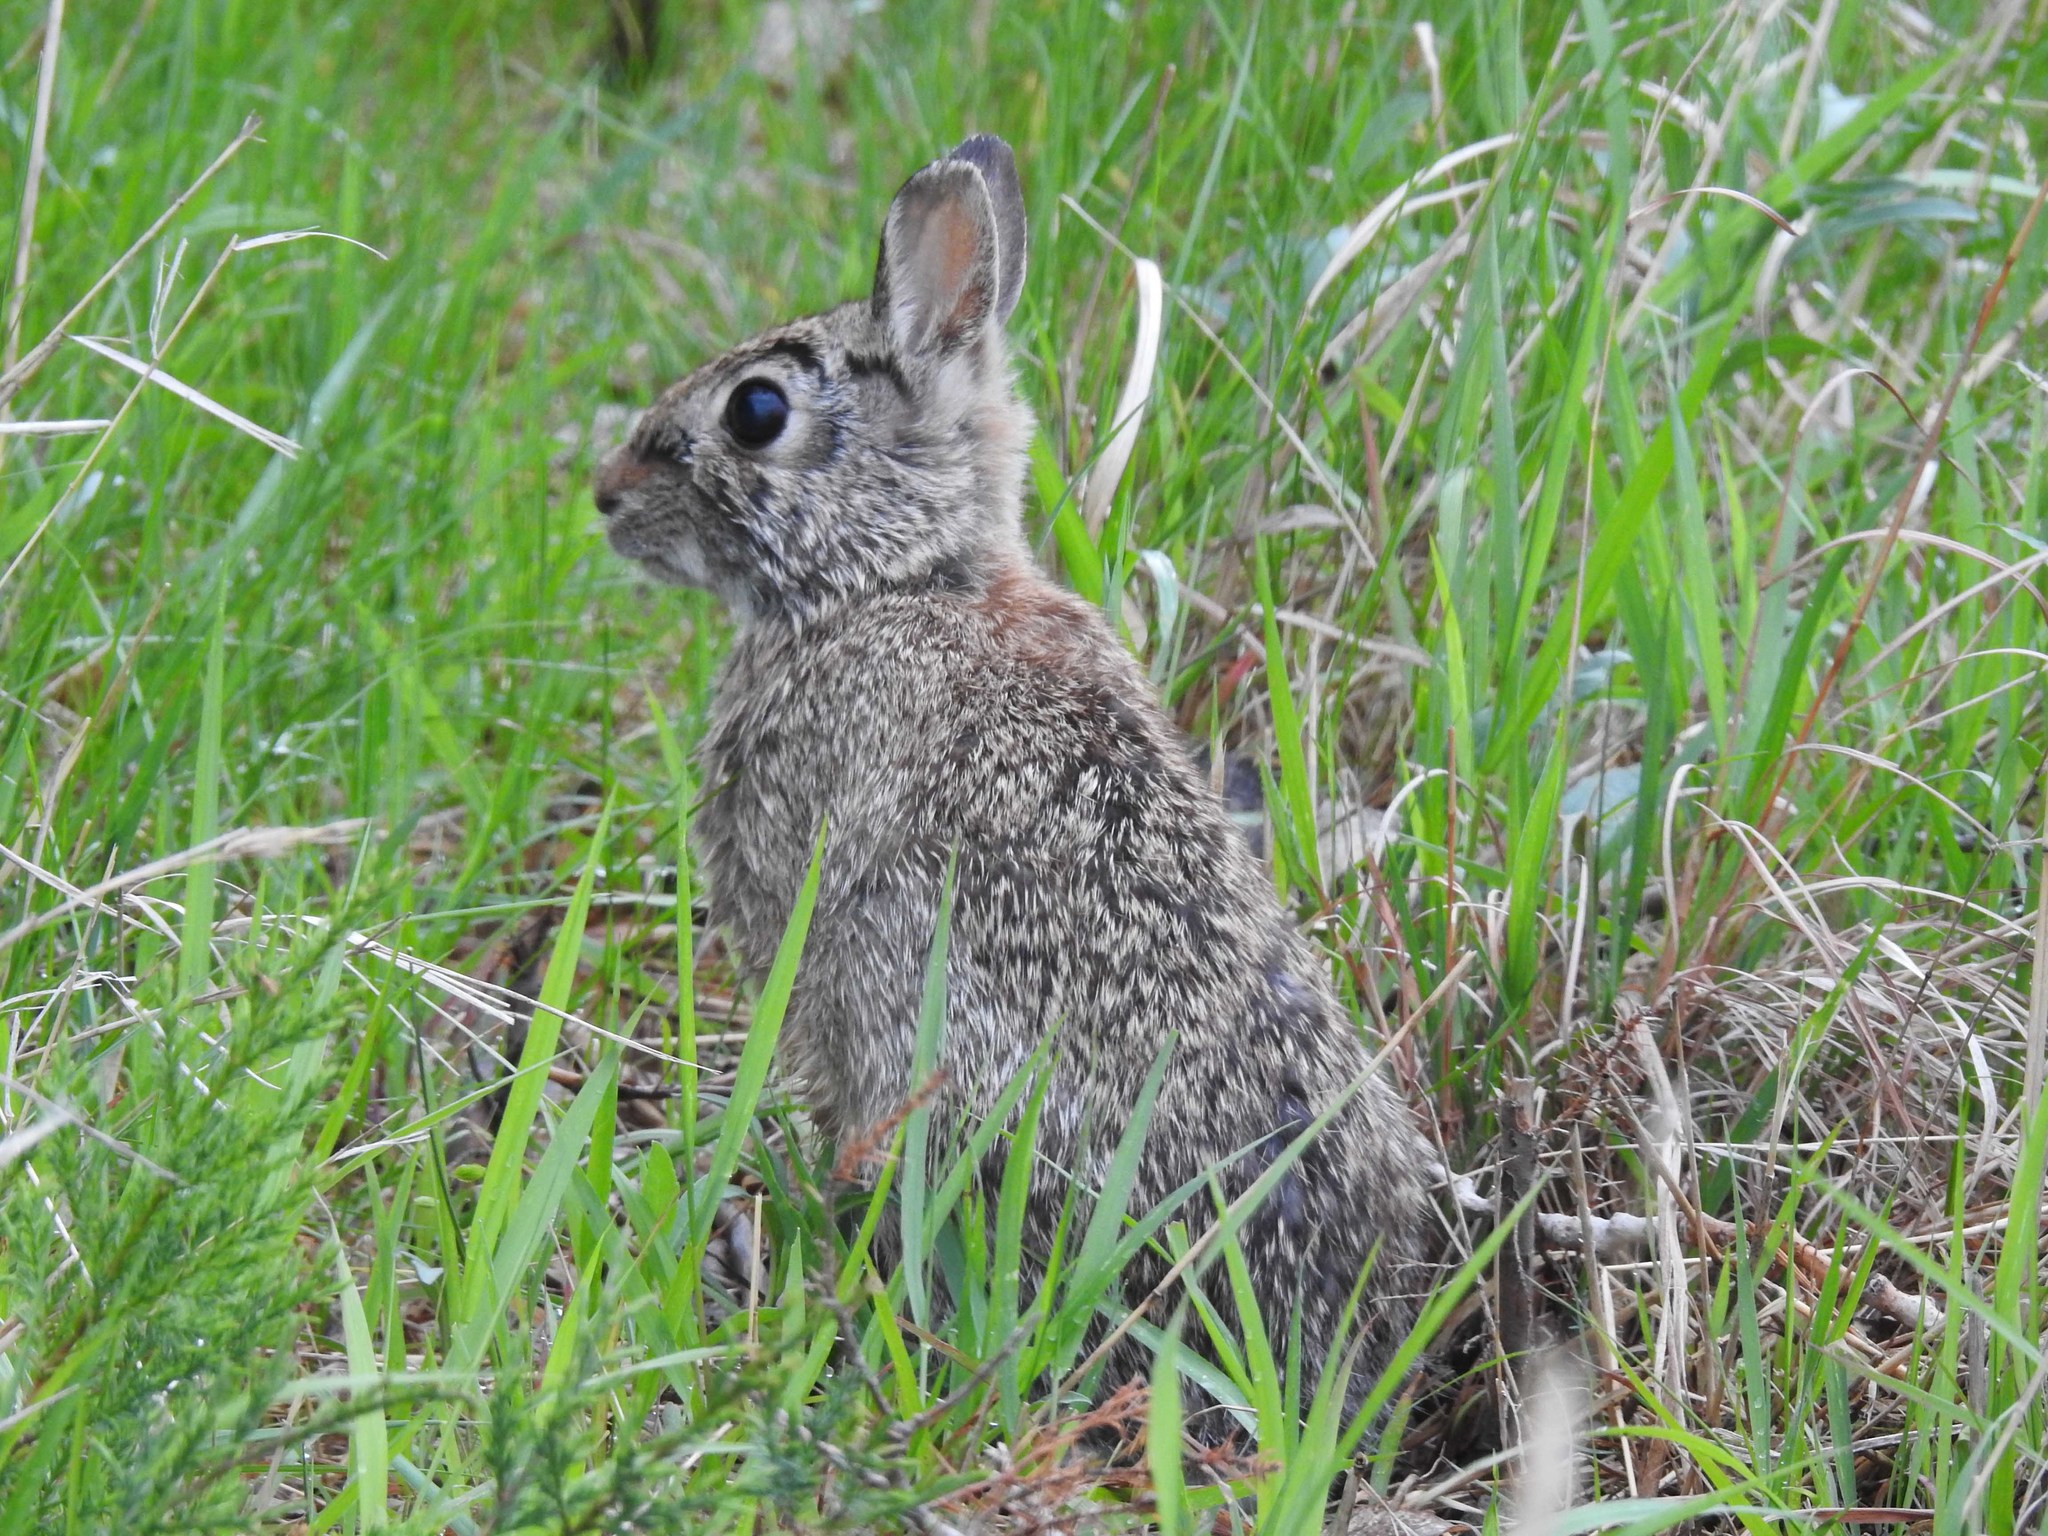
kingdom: Animalia
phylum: Chordata
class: Mammalia
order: Lagomorpha
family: Leporidae
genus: Sylvilagus
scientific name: Sylvilagus floridanus
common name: Eastern cottontail
